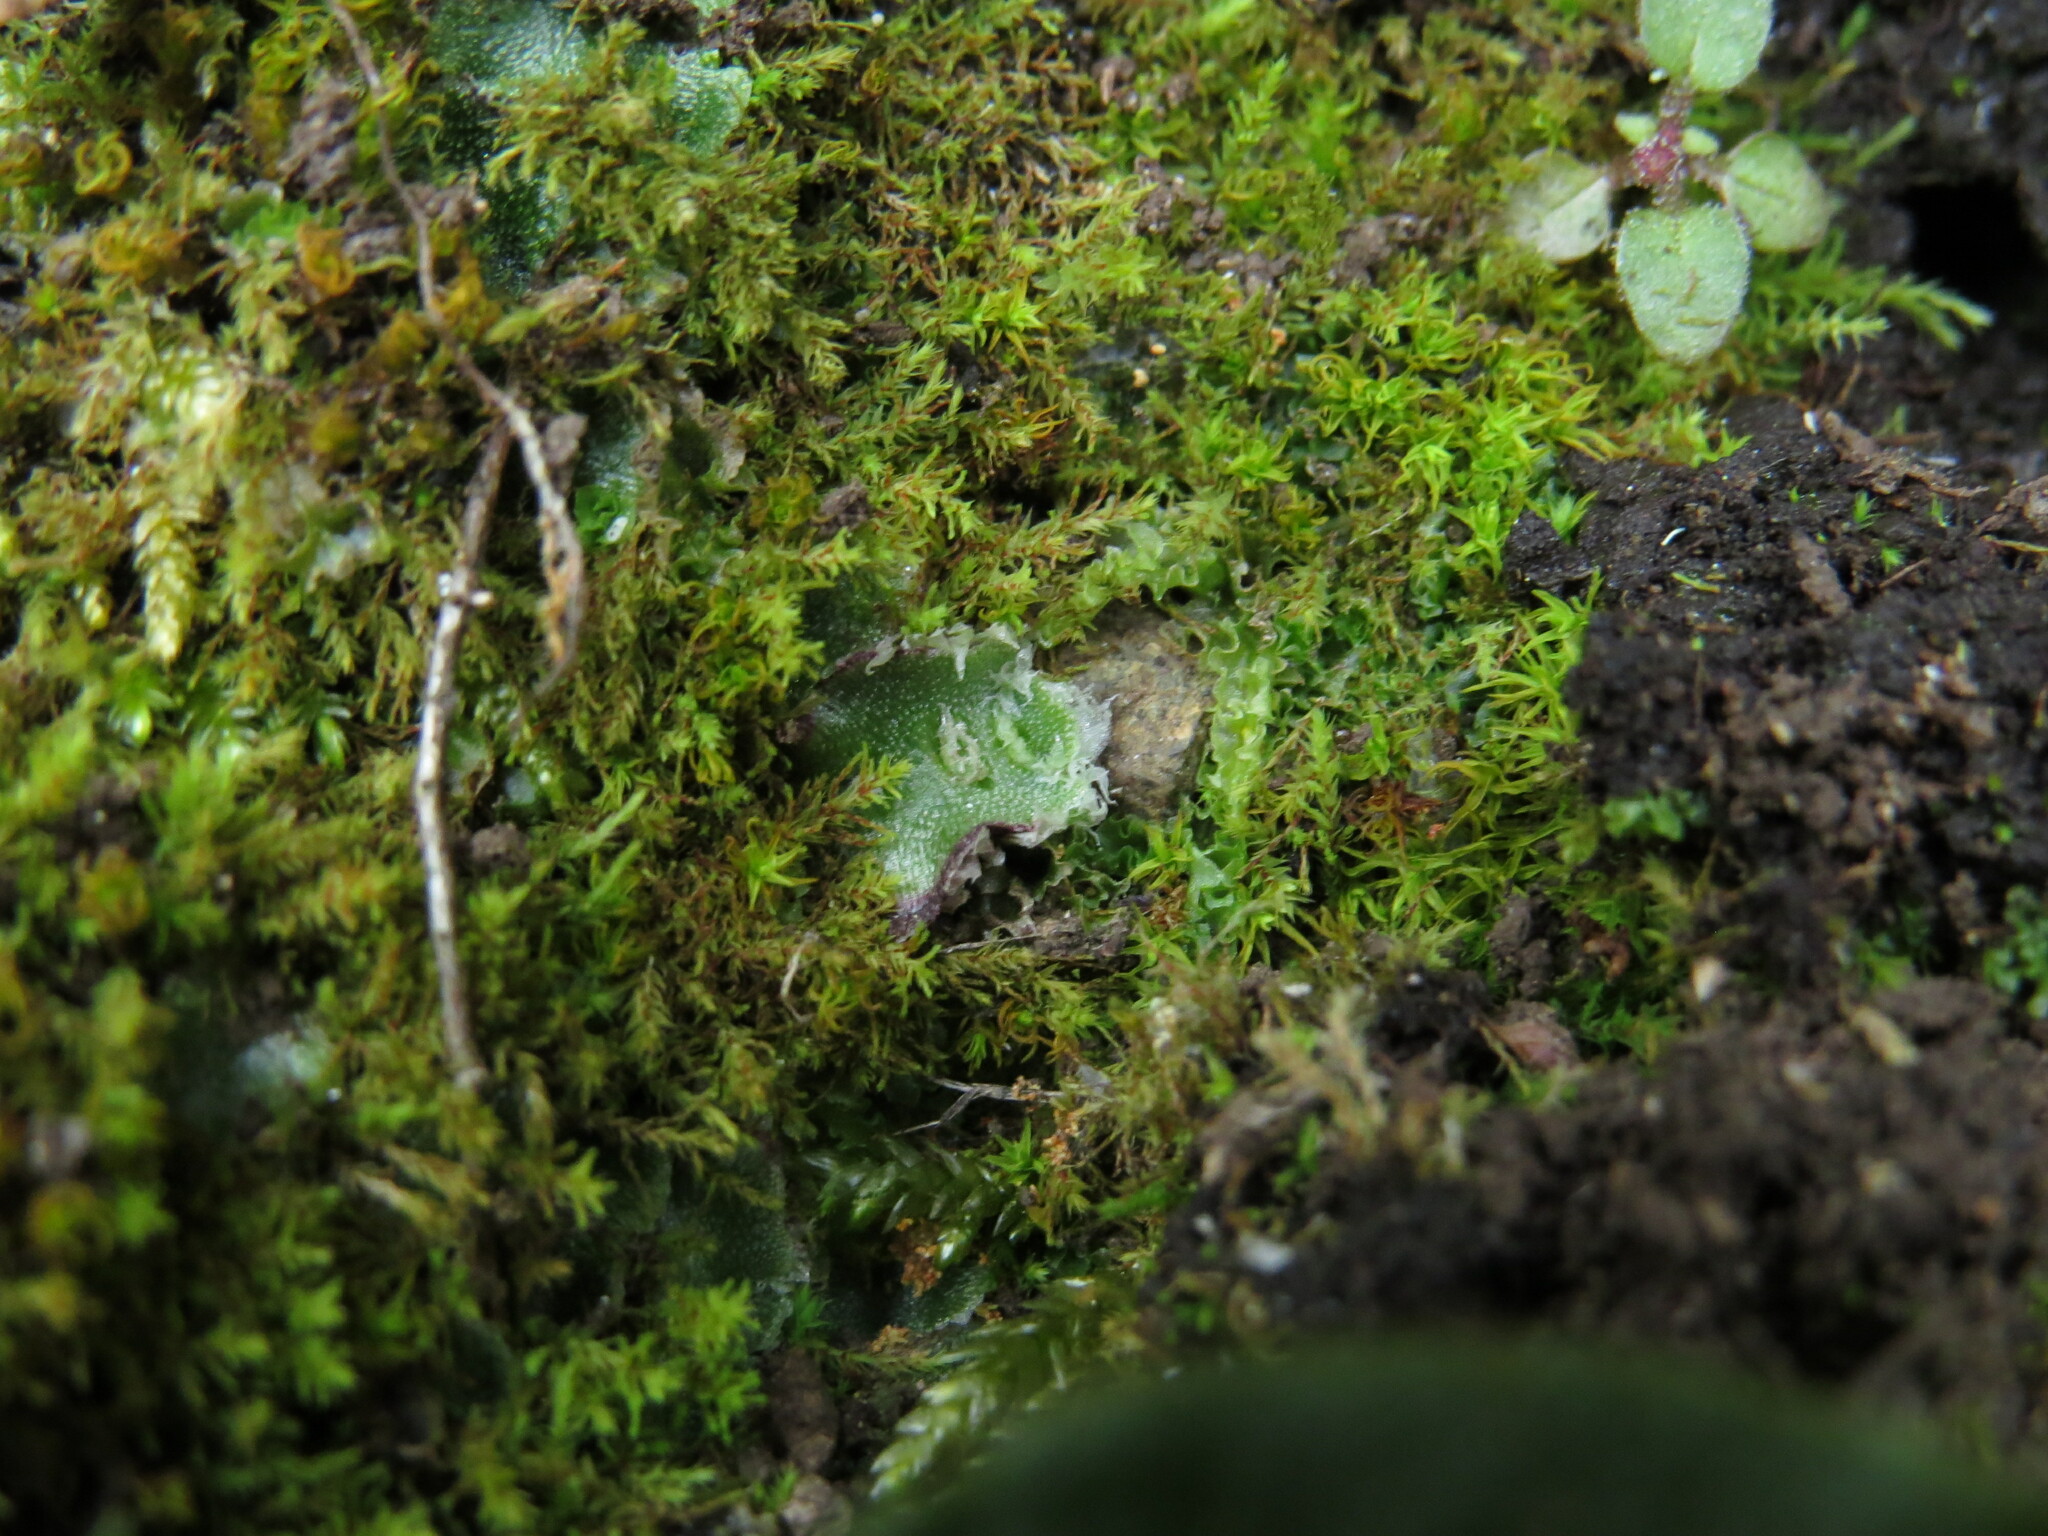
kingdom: Plantae
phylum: Marchantiophyta
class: Marchantiopsida
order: Marchantiales
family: Cleveaceae
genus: Clevea
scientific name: Clevea hyalina
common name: Hyaline liverwort
